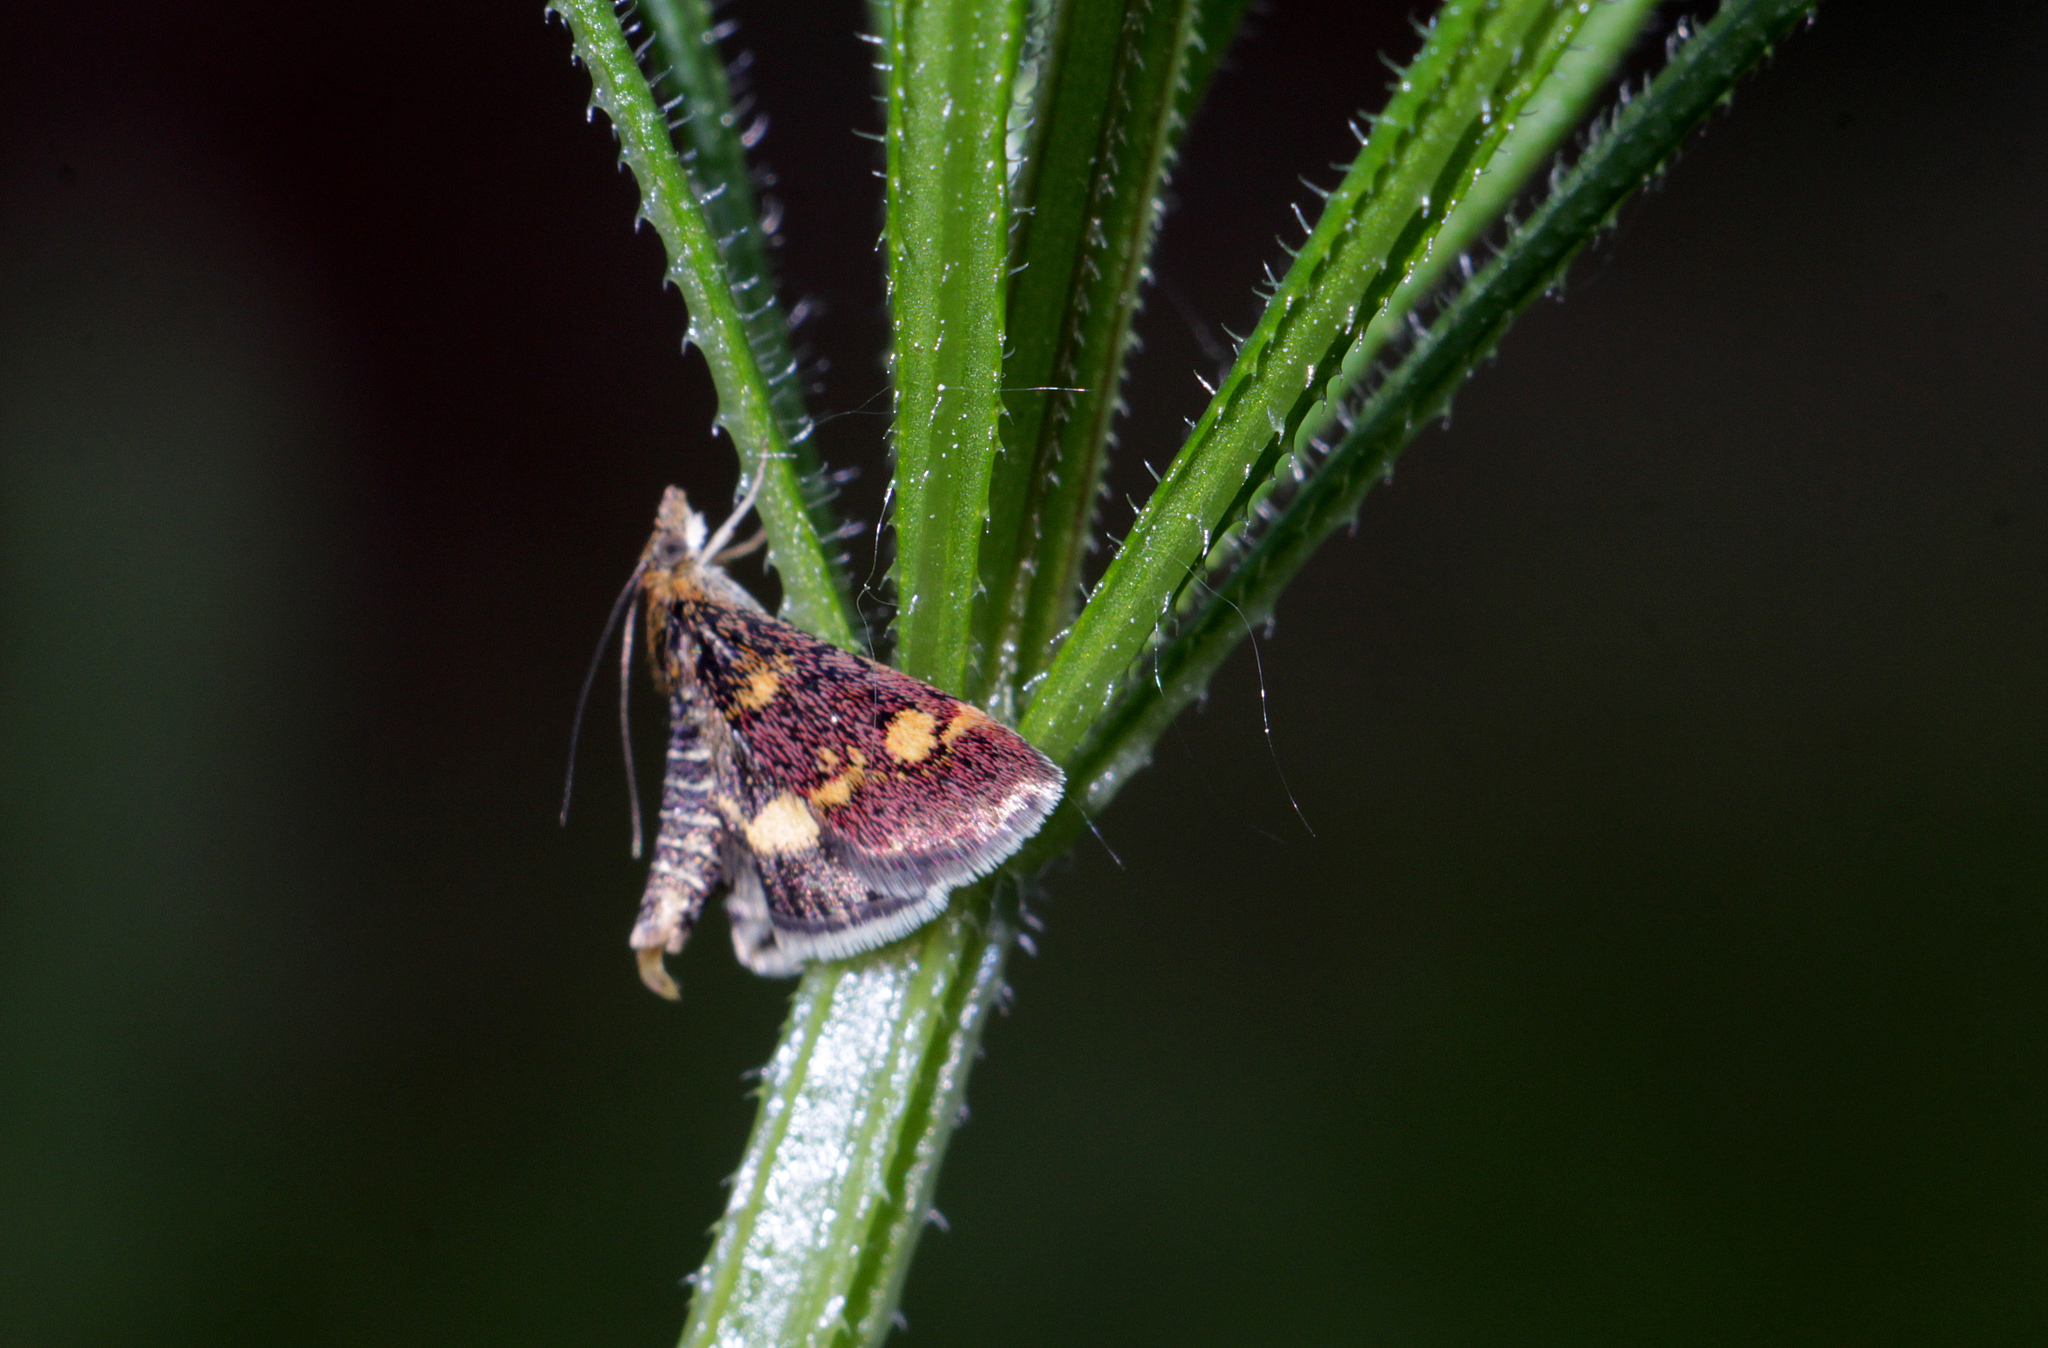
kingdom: Animalia
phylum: Arthropoda
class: Insecta
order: Lepidoptera
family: Crambidae
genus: Pyrausta
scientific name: Pyrausta aurata
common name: Small purple & gold
